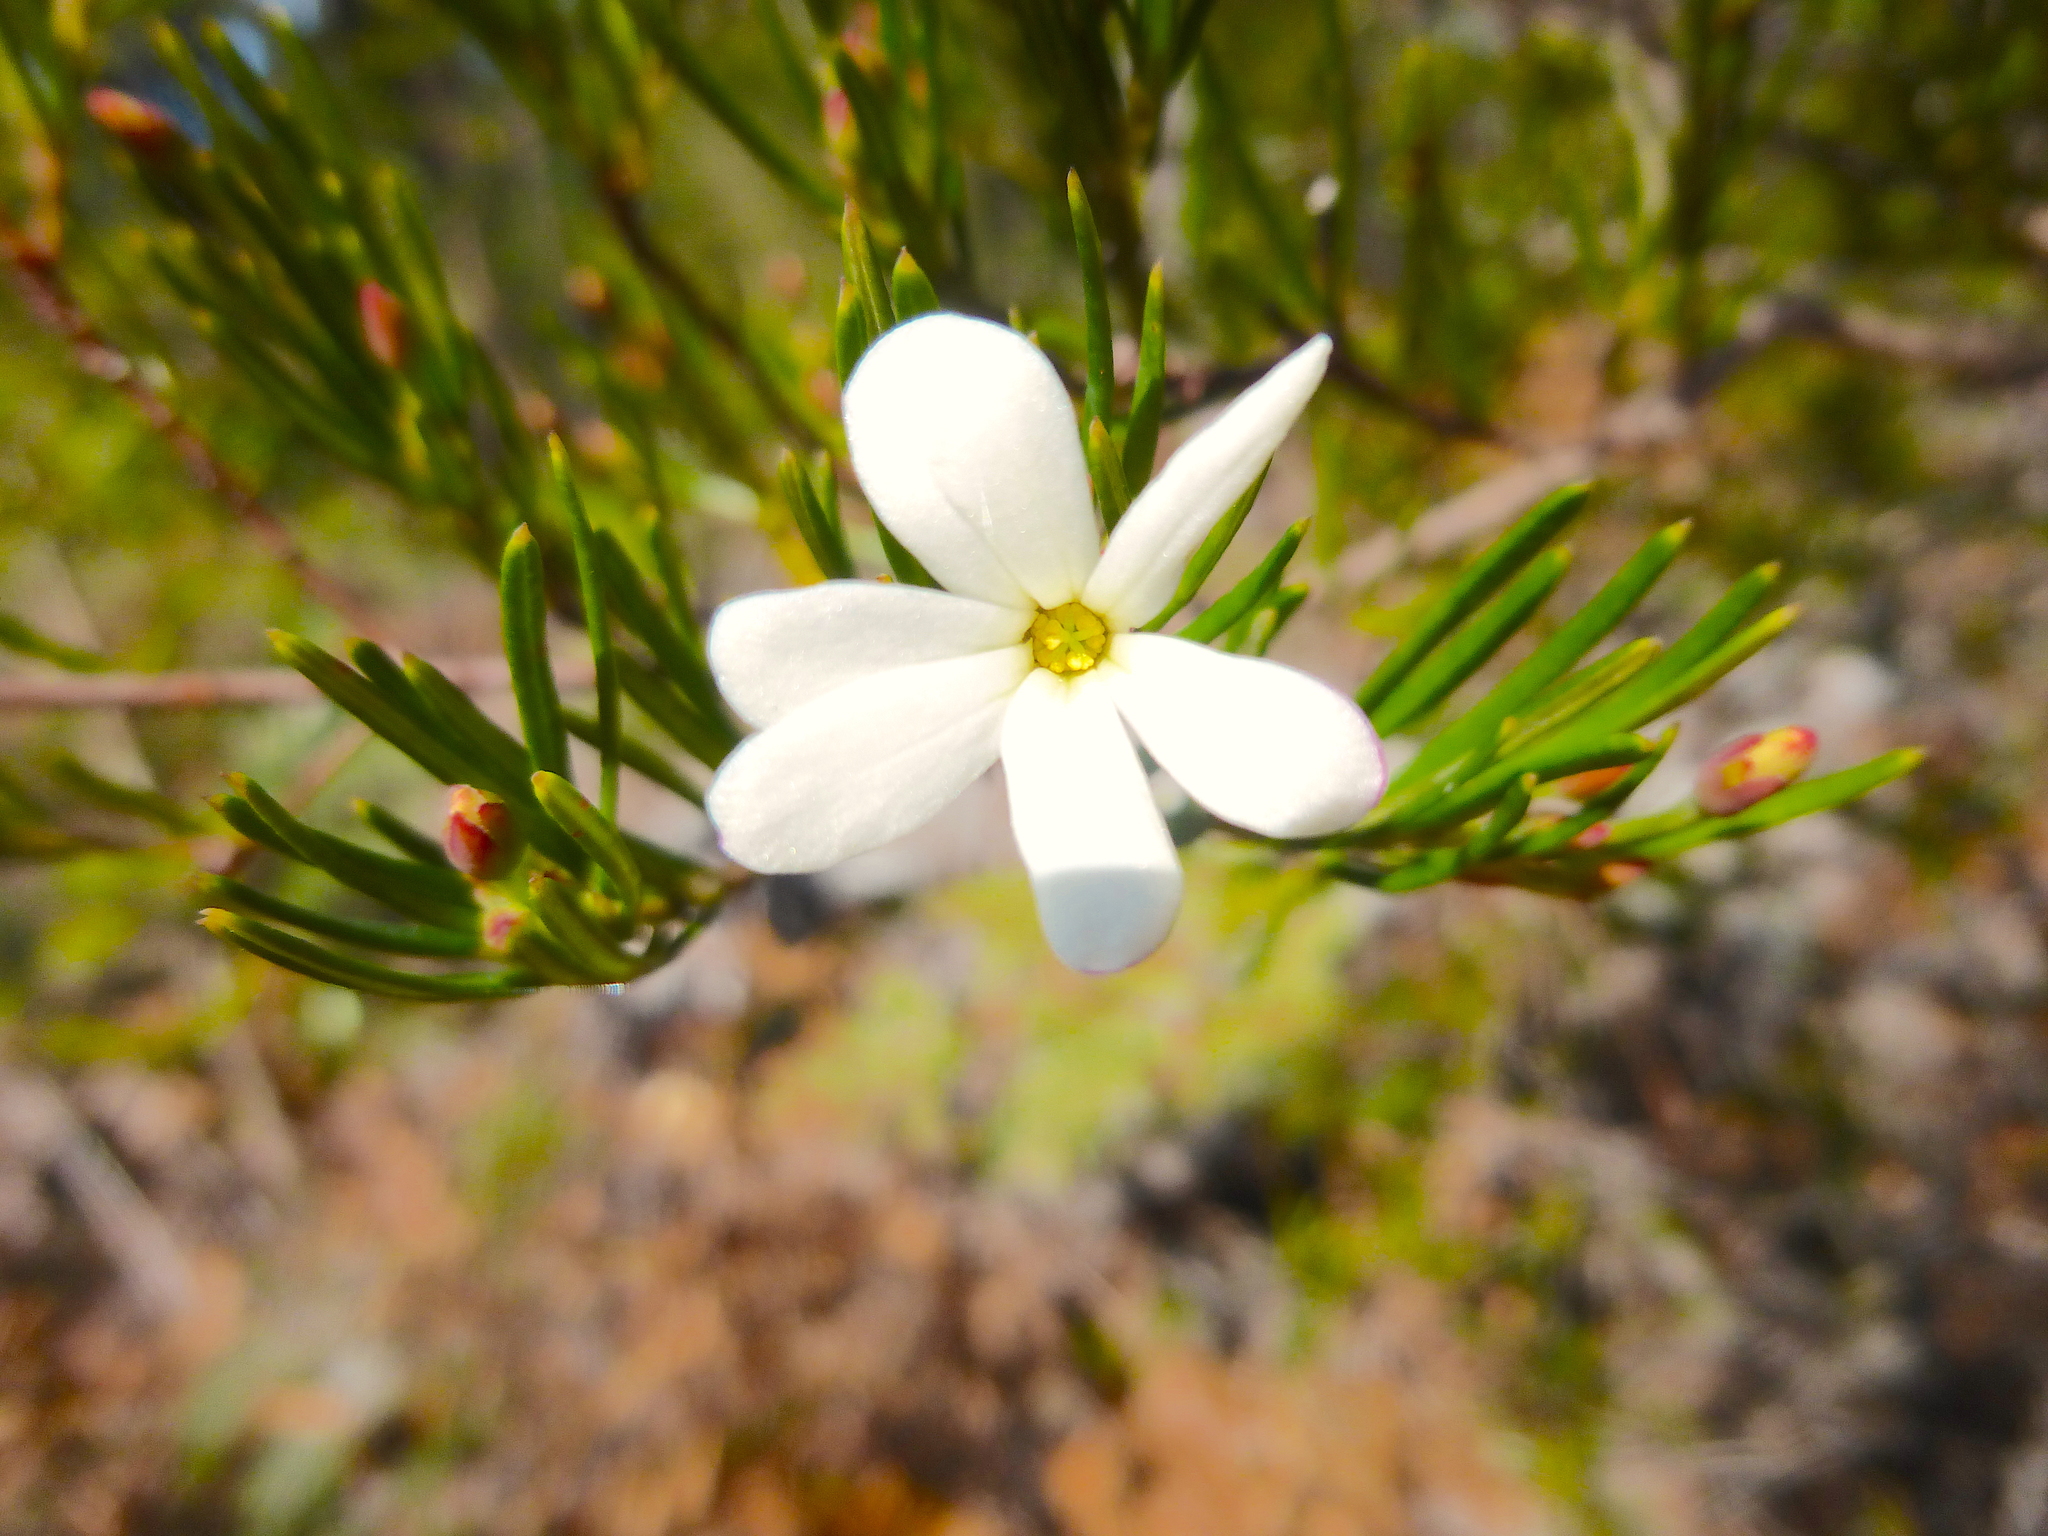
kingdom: Plantae
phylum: Tracheophyta
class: Magnoliopsida
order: Malpighiales
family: Euphorbiaceae
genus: Ricinocarpos
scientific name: Ricinocarpos pinifolius
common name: Weddingbush
